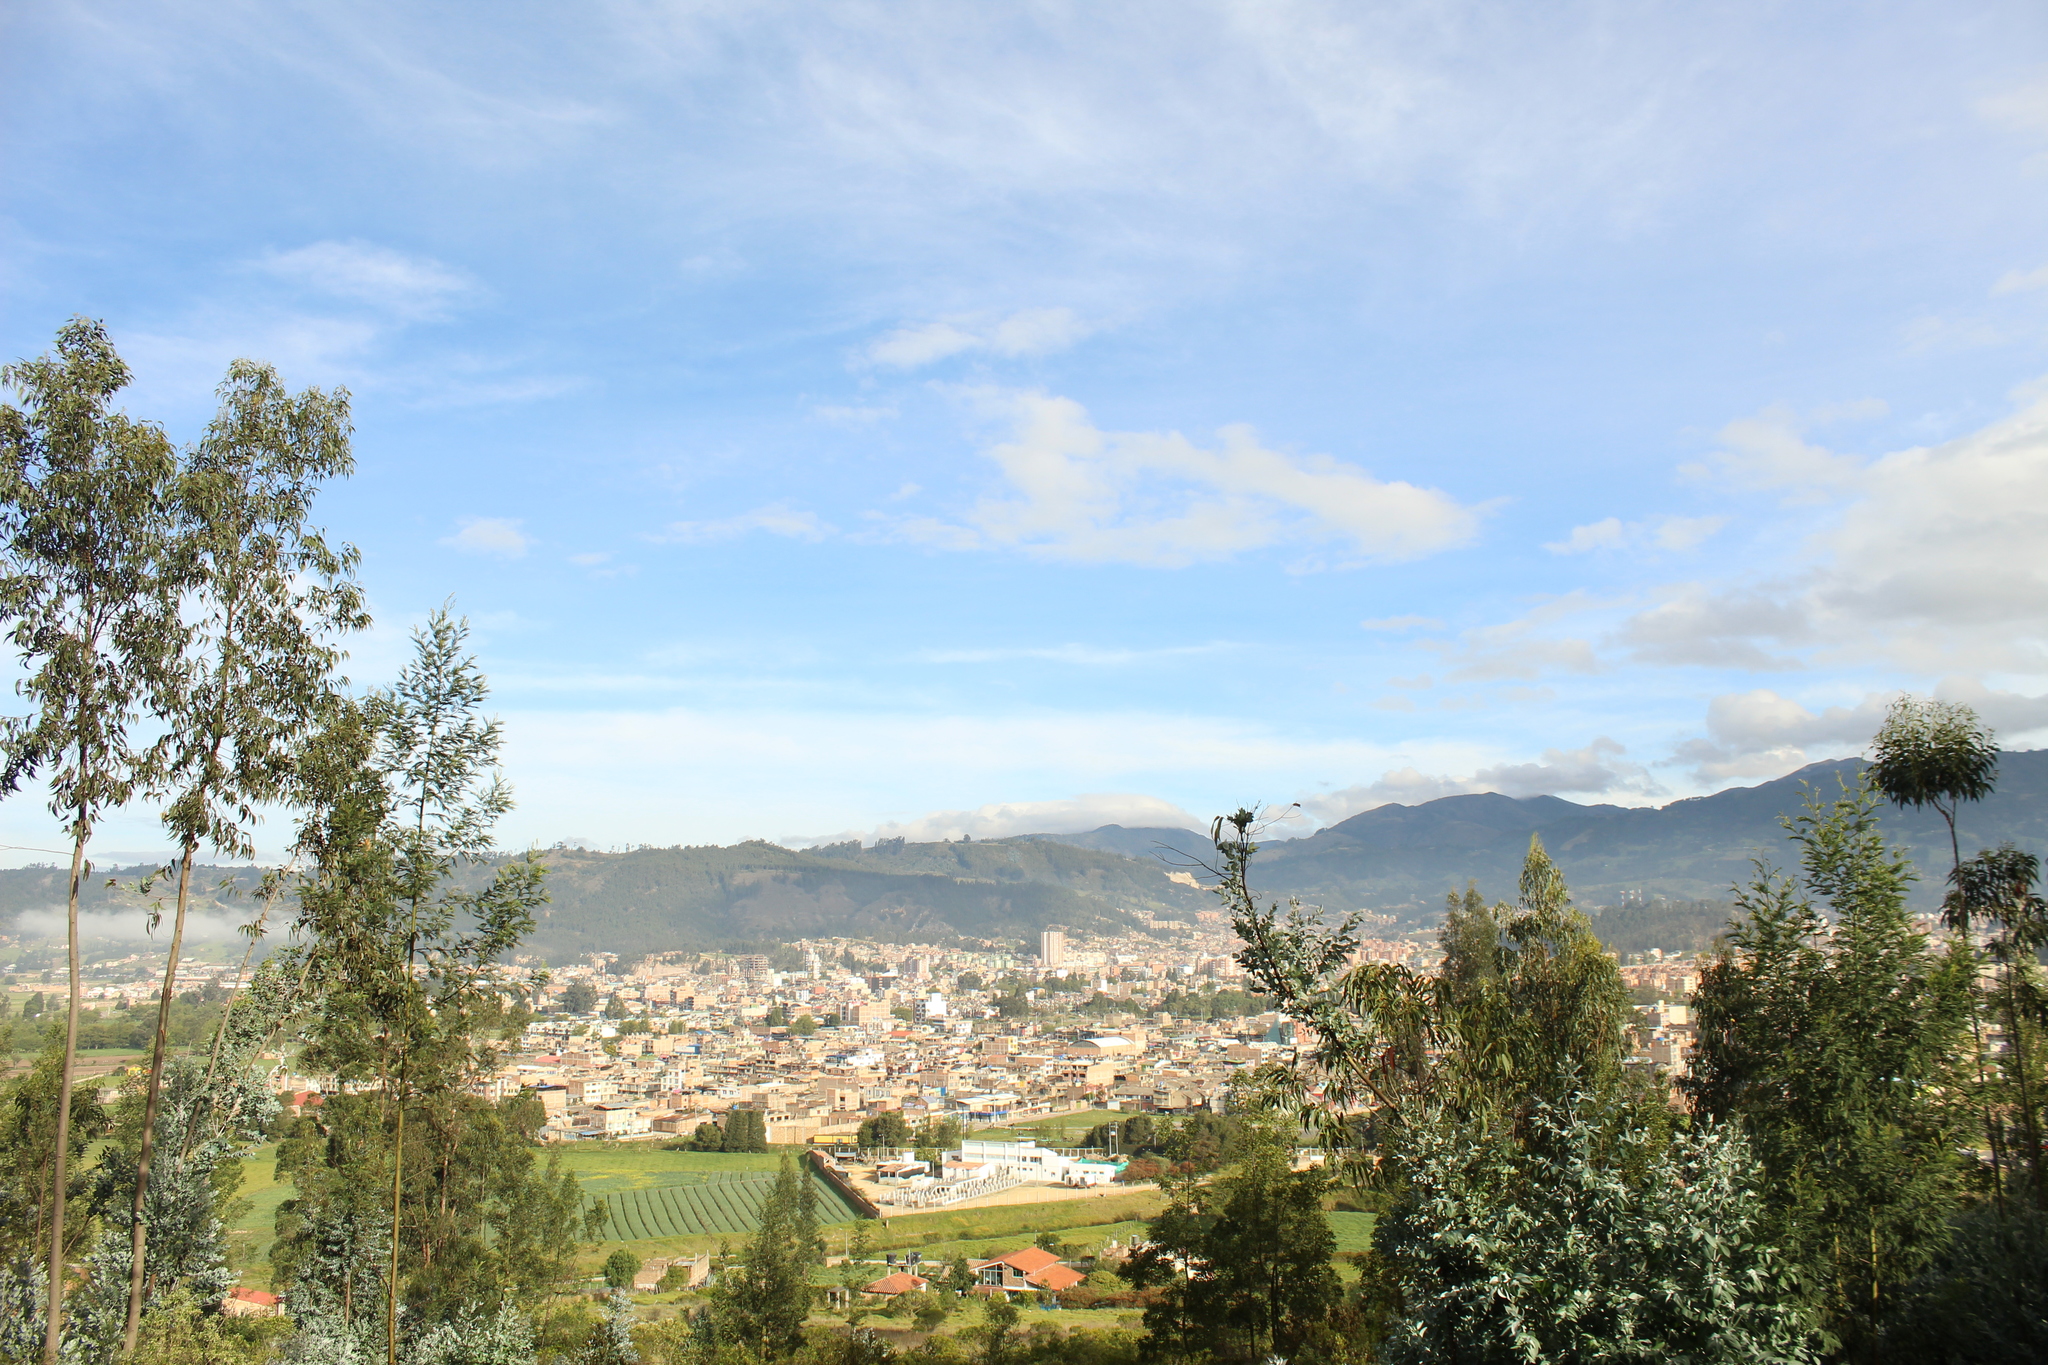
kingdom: Plantae
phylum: Tracheophyta
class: Magnoliopsida
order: Myrtales
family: Myrtaceae
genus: Eucalyptus
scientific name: Eucalyptus globulus
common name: Southern blue-gum
